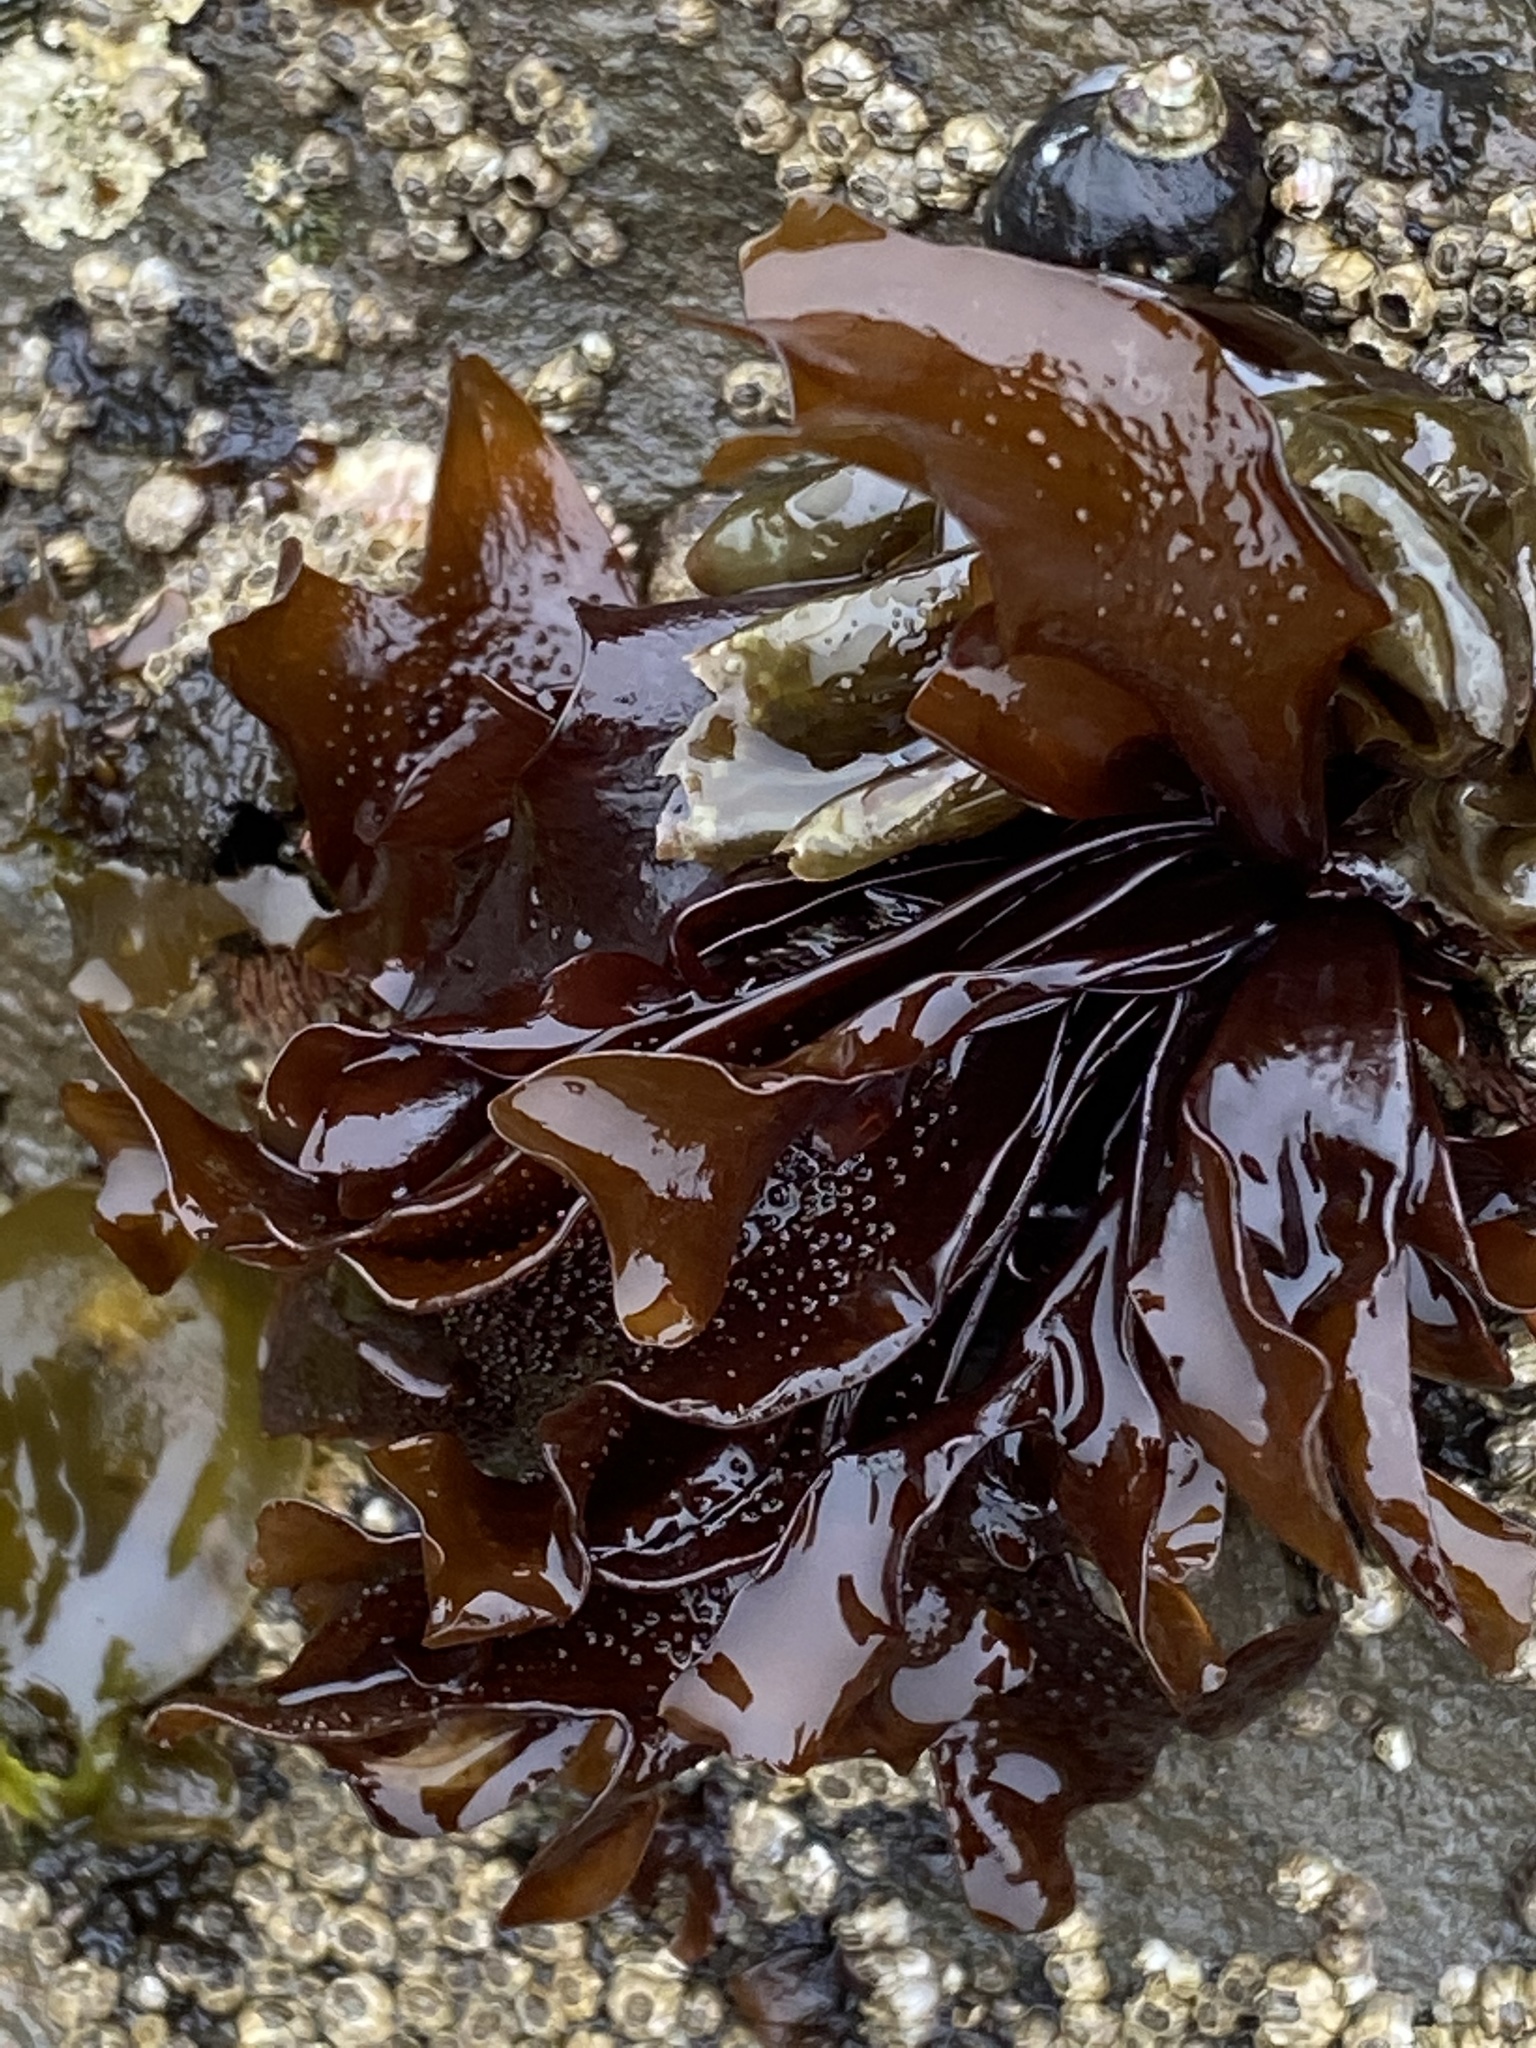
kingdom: Plantae
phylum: Rhodophyta
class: Florideophyceae
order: Gigartinales
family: Phyllophoraceae
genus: Mastocarpus
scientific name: Mastocarpus papillatus
